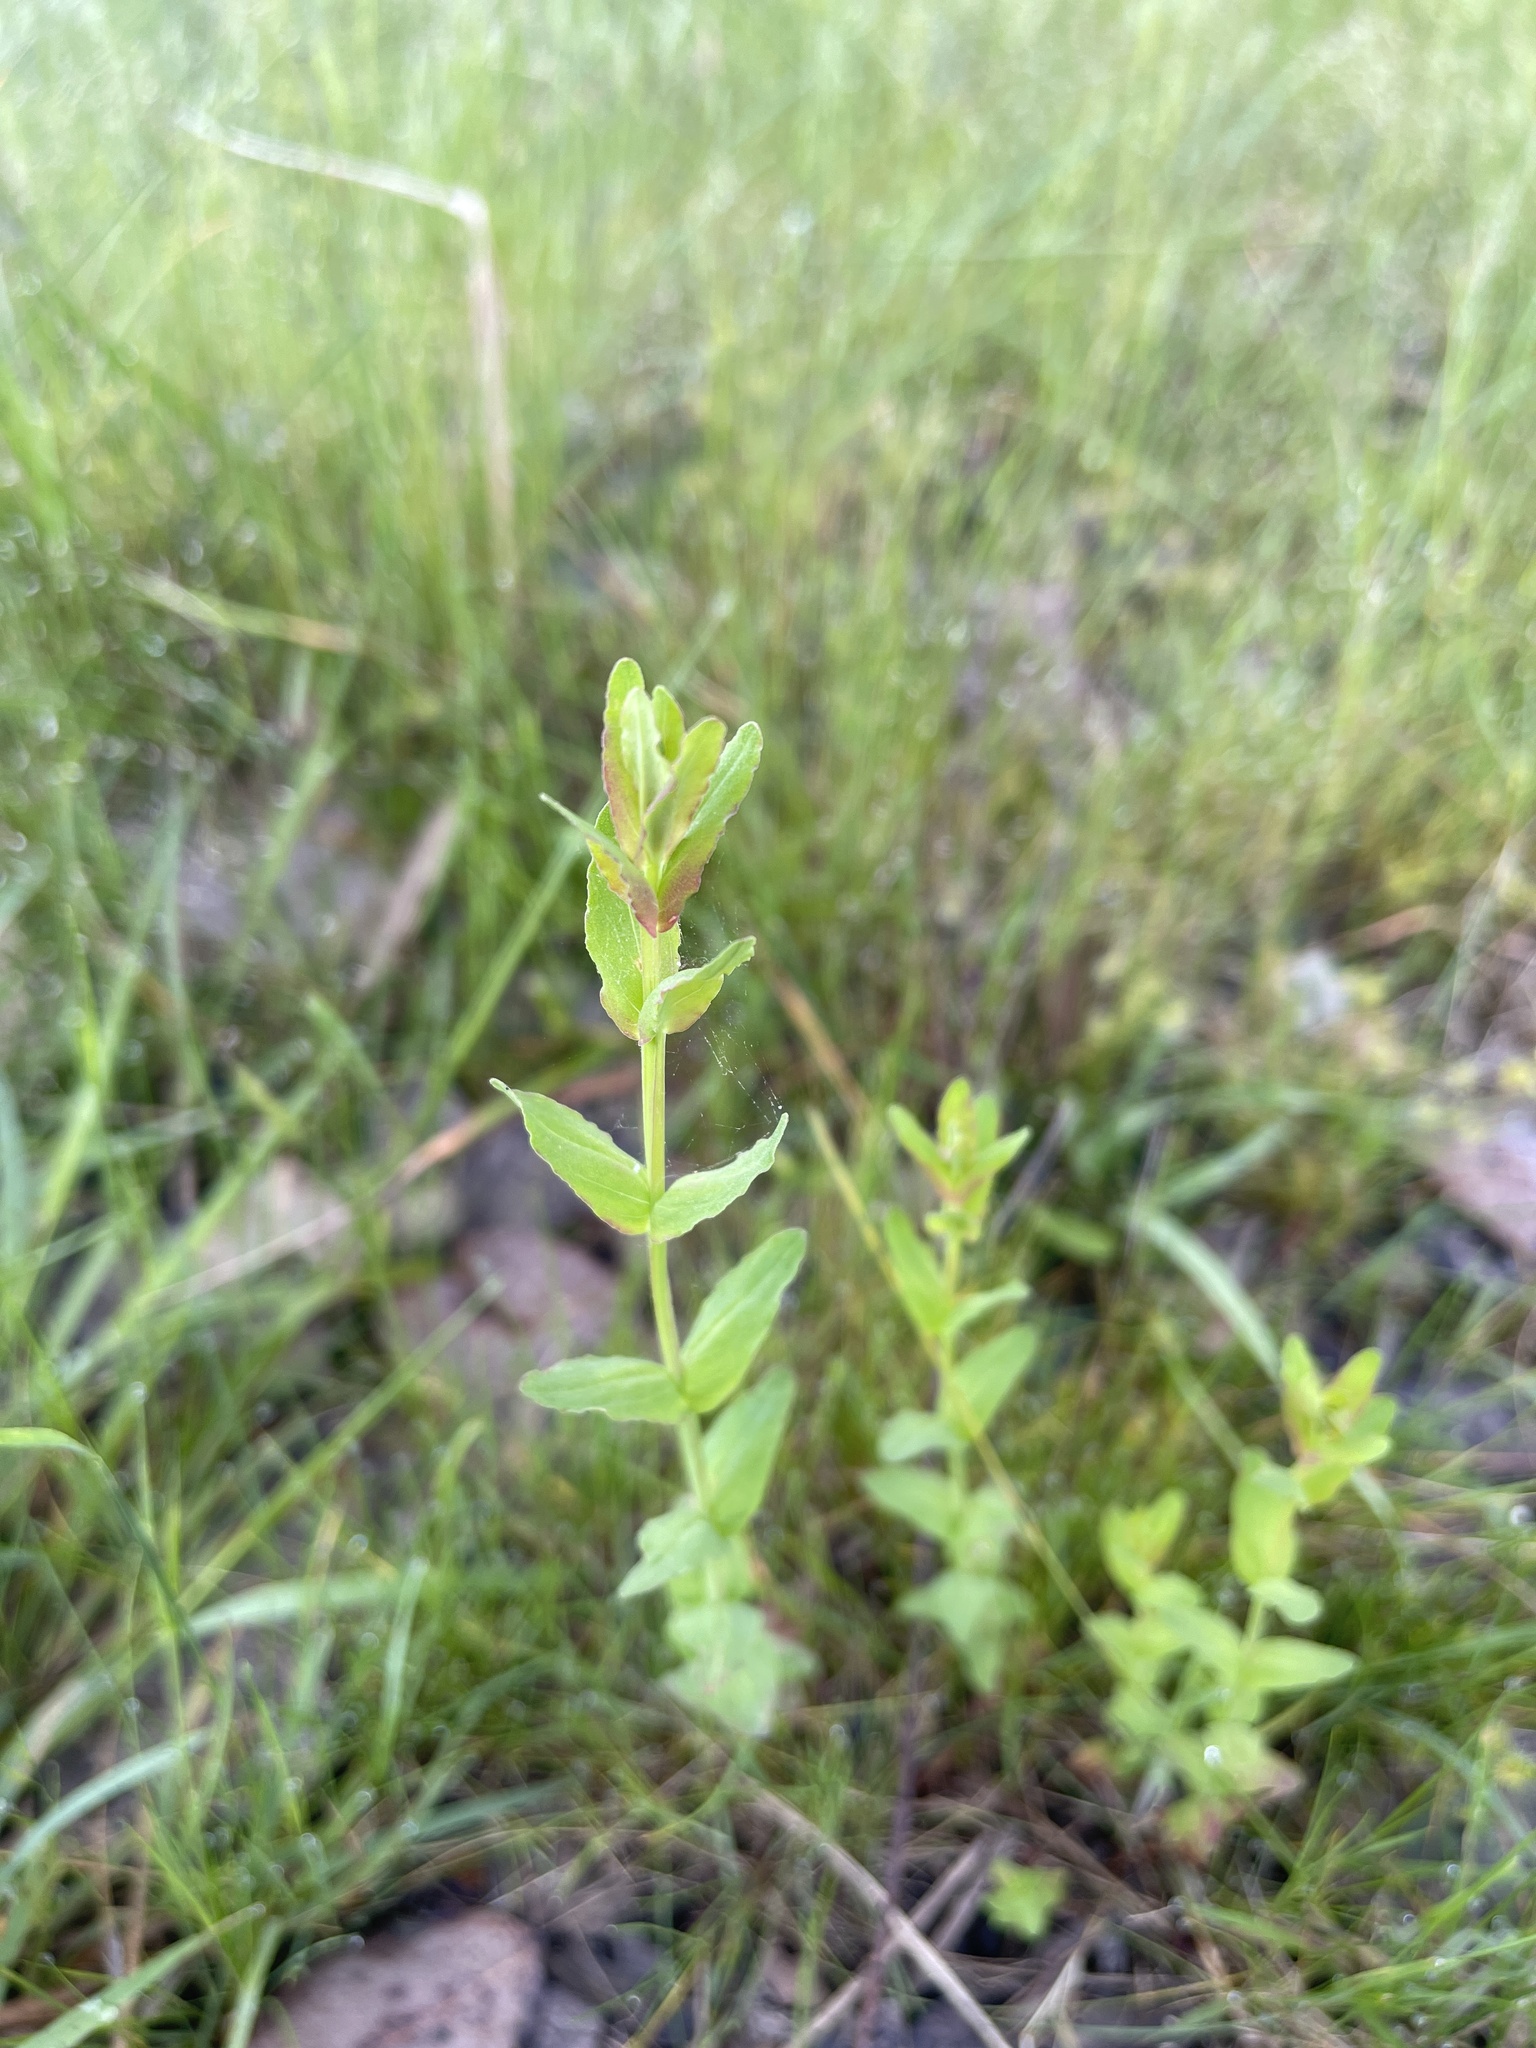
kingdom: Plantae
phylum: Tracheophyta
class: Magnoliopsida
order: Malpighiales
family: Hypericaceae
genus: Hypericum
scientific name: Hypericum gramineum
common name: Grassy st. johnswort
